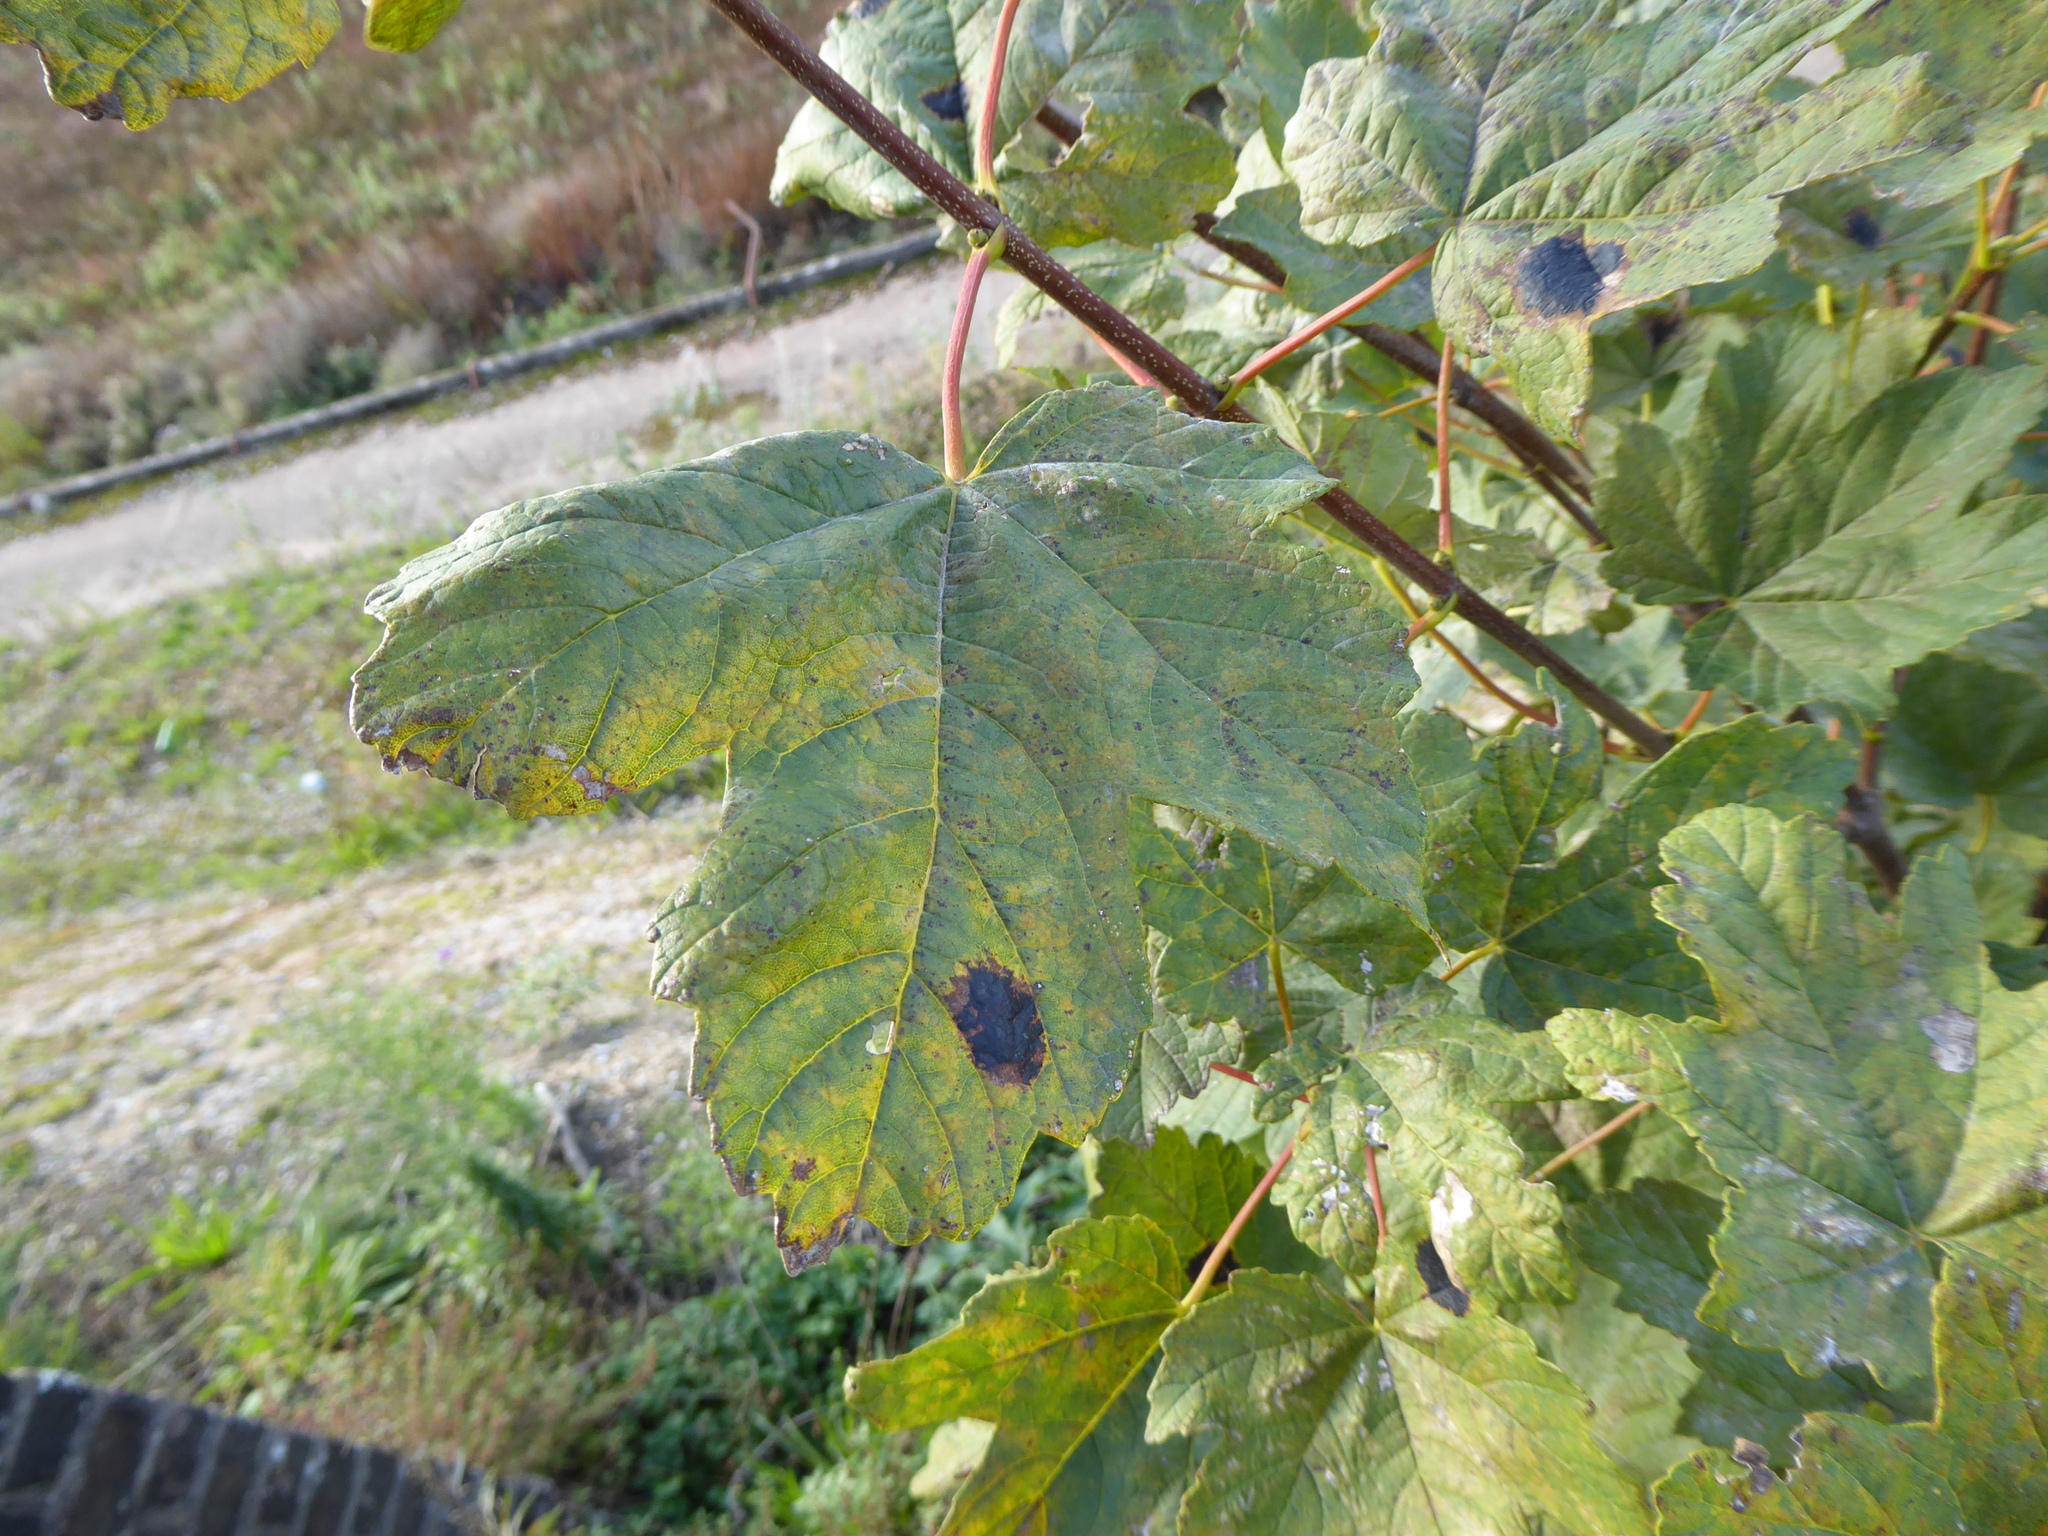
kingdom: Fungi
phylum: Ascomycota
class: Leotiomycetes
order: Rhytismatales
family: Rhytismataceae
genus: Rhytisma
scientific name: Rhytisma acerinum
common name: European tar spot
